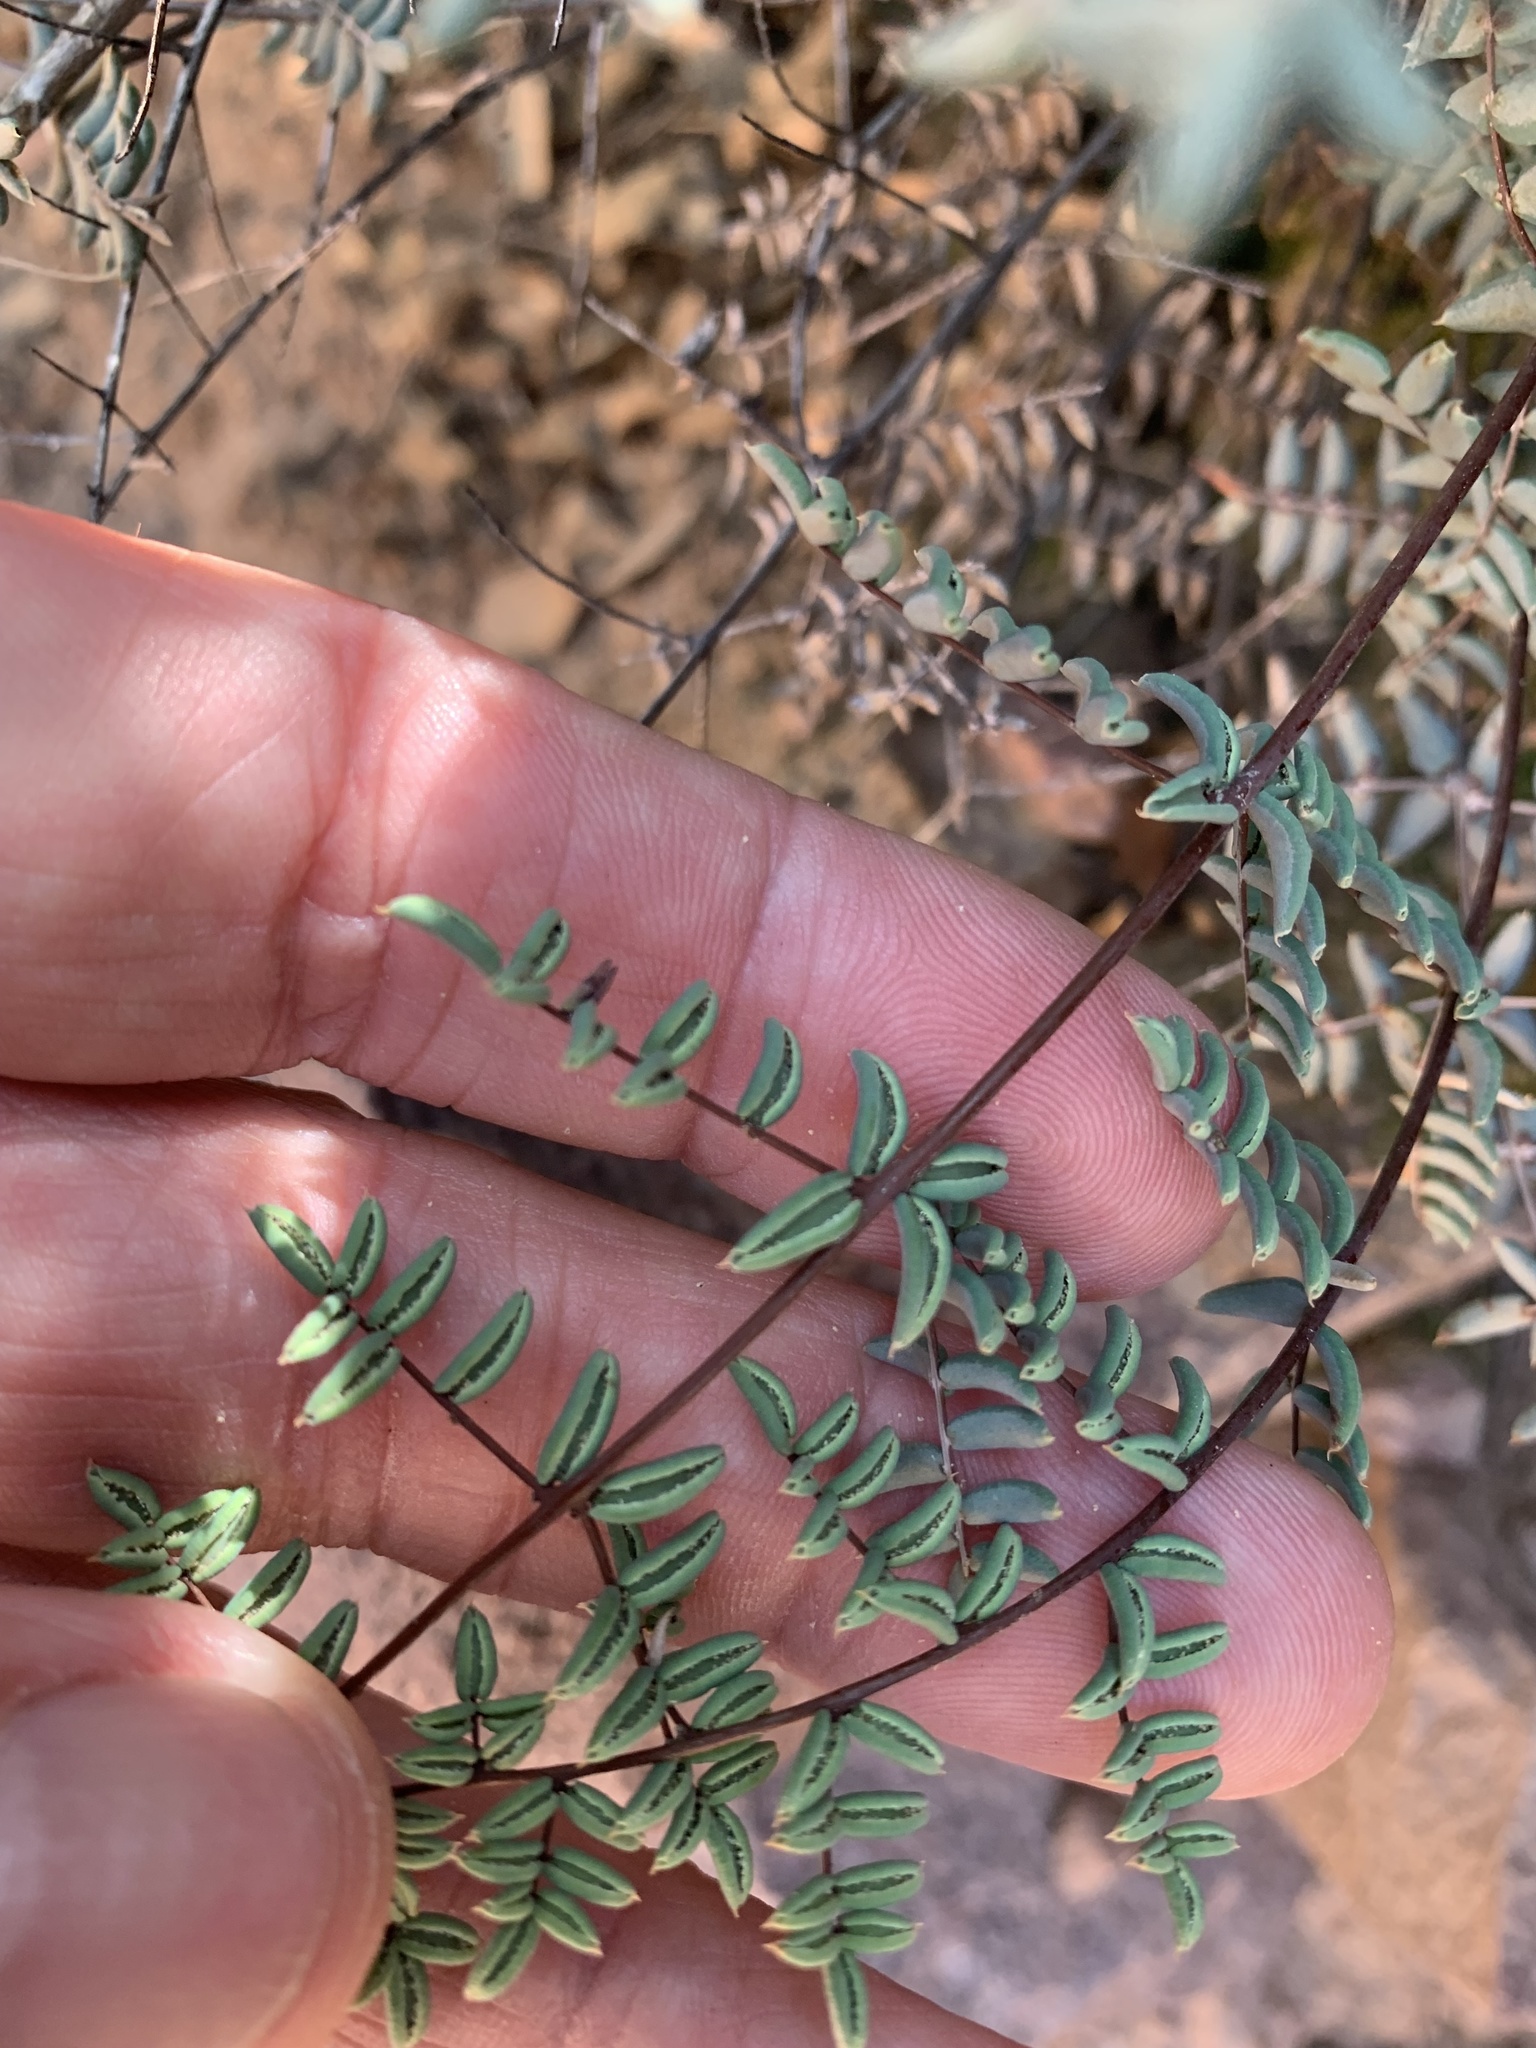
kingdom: Plantae
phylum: Tracheophyta
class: Polypodiopsida
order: Polypodiales
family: Pteridaceae
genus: Pellaea
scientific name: Pellaea truncata
